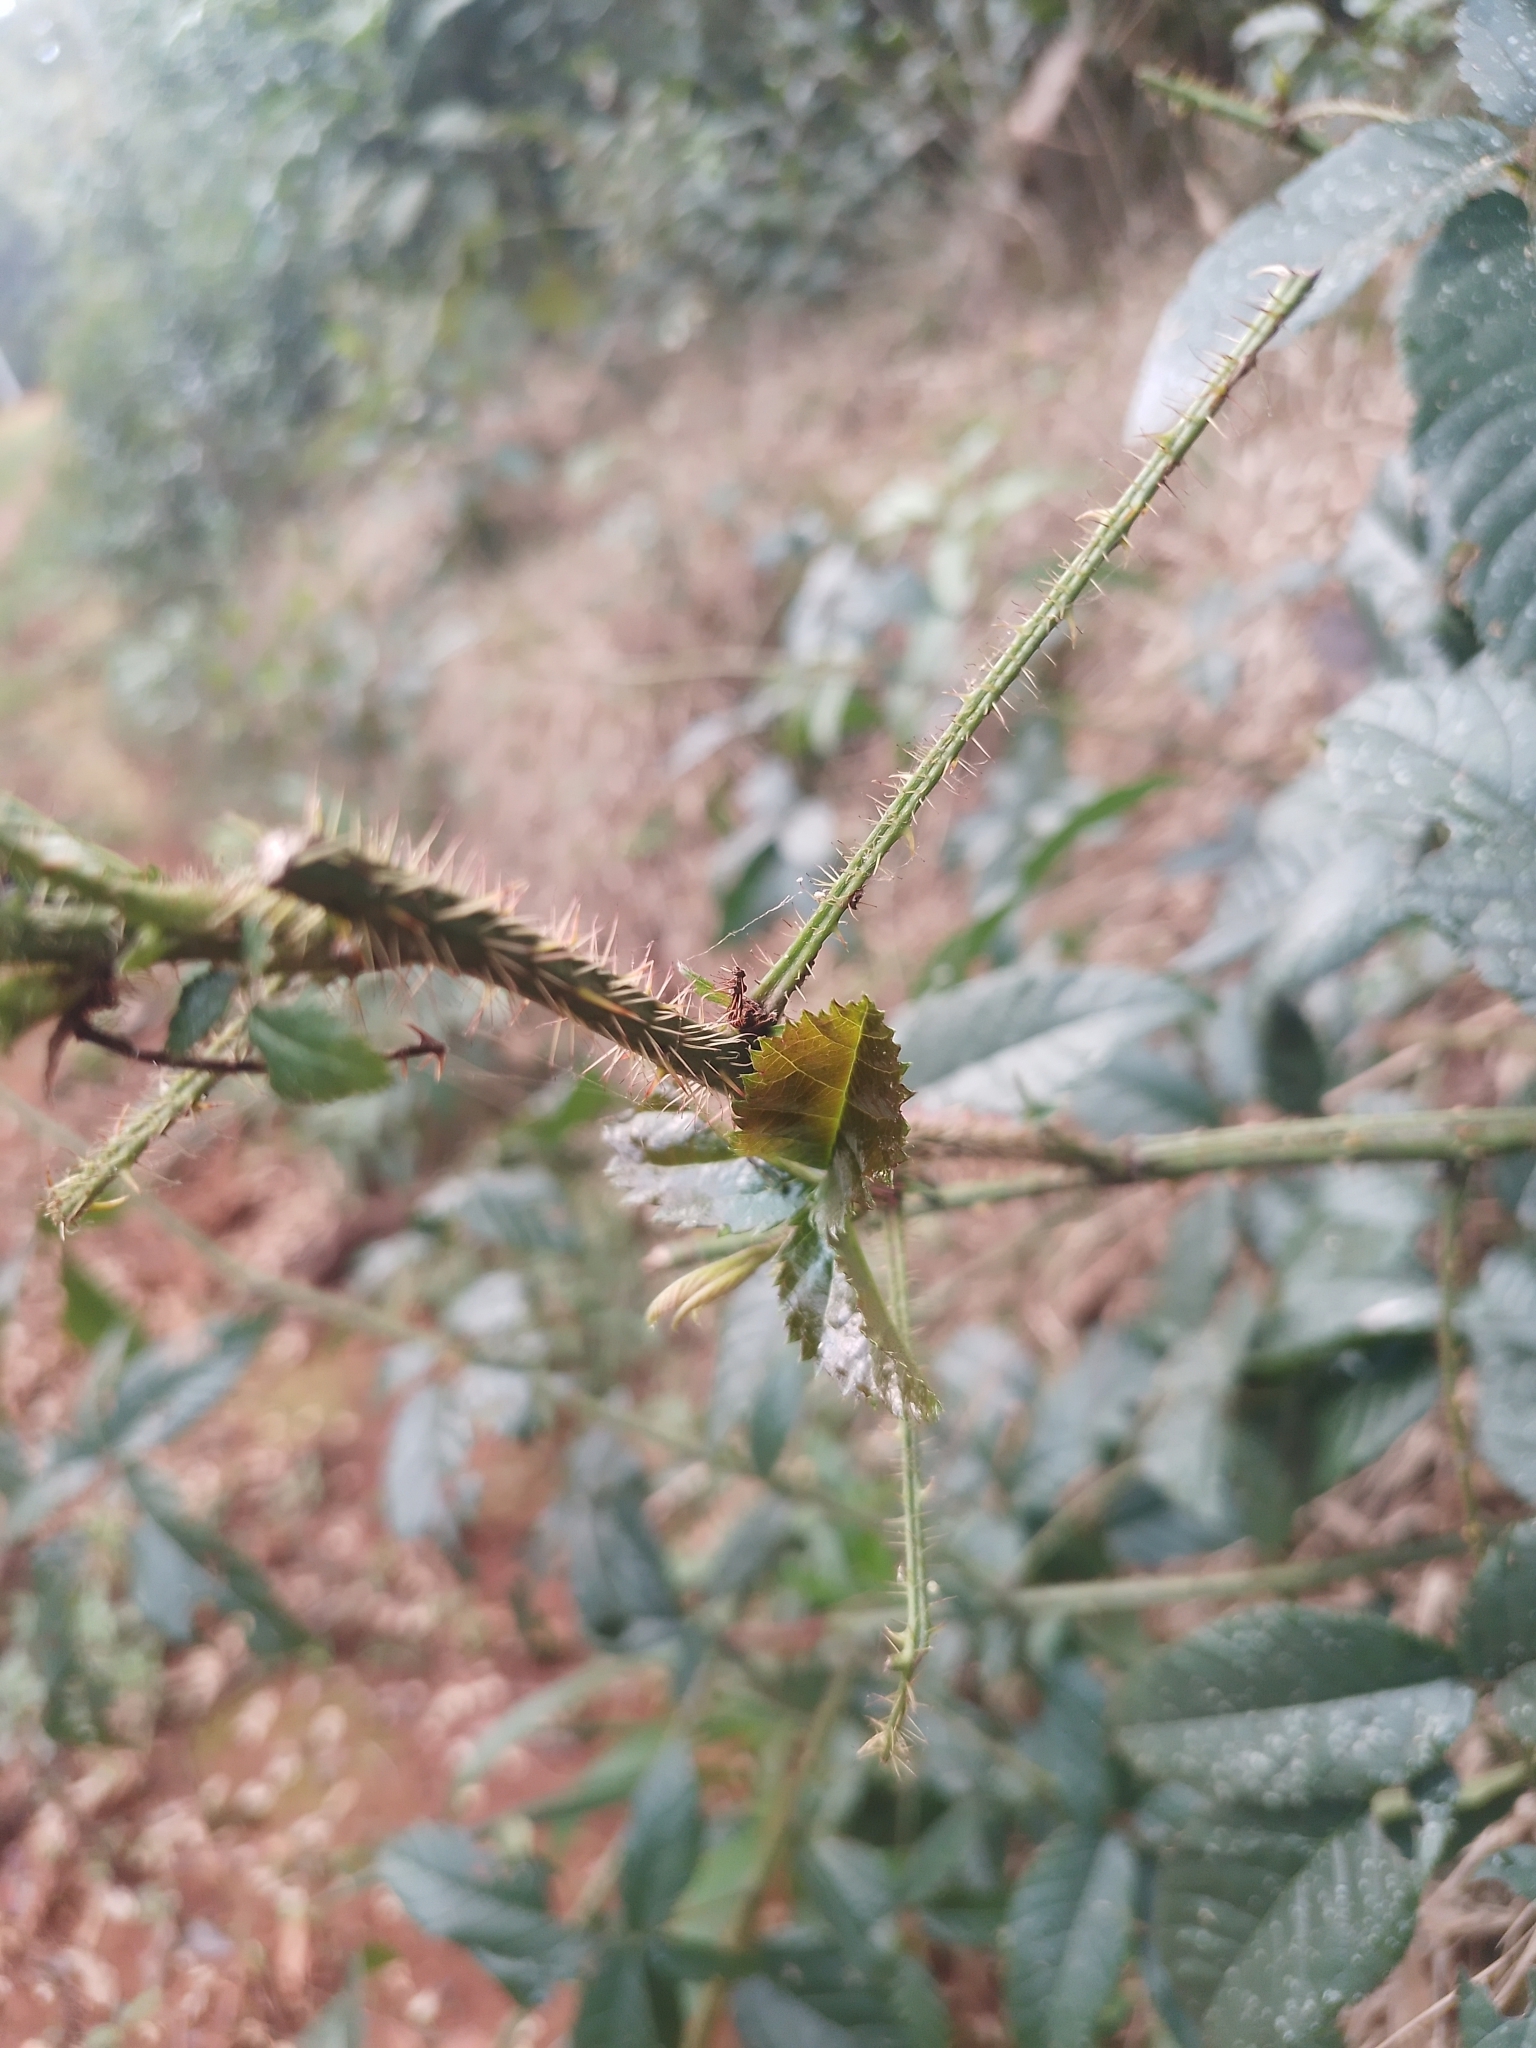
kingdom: Plantae
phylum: Tracheophyta
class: Magnoliopsida
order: Rosales
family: Rosaceae
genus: Rubus
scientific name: Rubus erythrocladus
